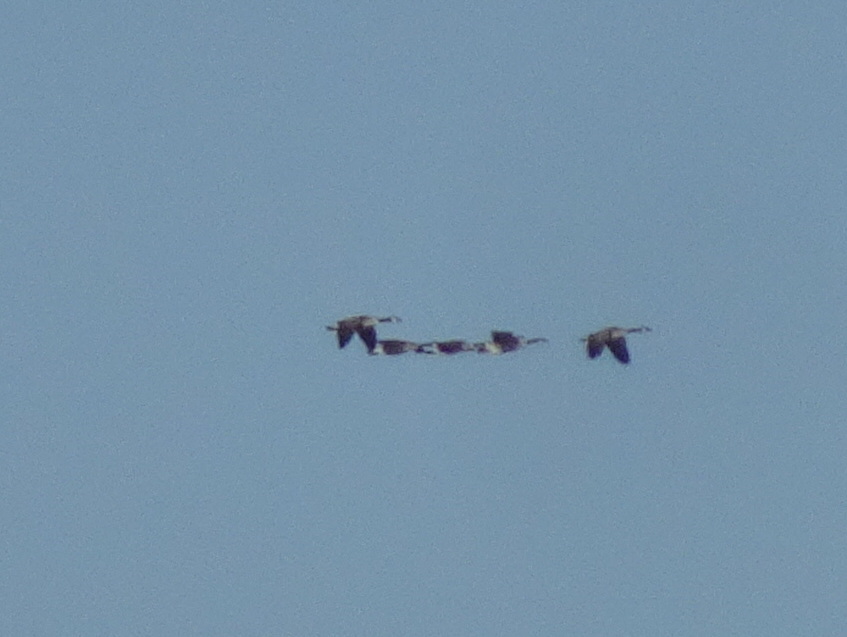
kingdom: Animalia
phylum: Chordata
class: Aves
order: Anseriformes
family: Anatidae
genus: Branta
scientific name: Branta canadensis
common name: Canada goose
